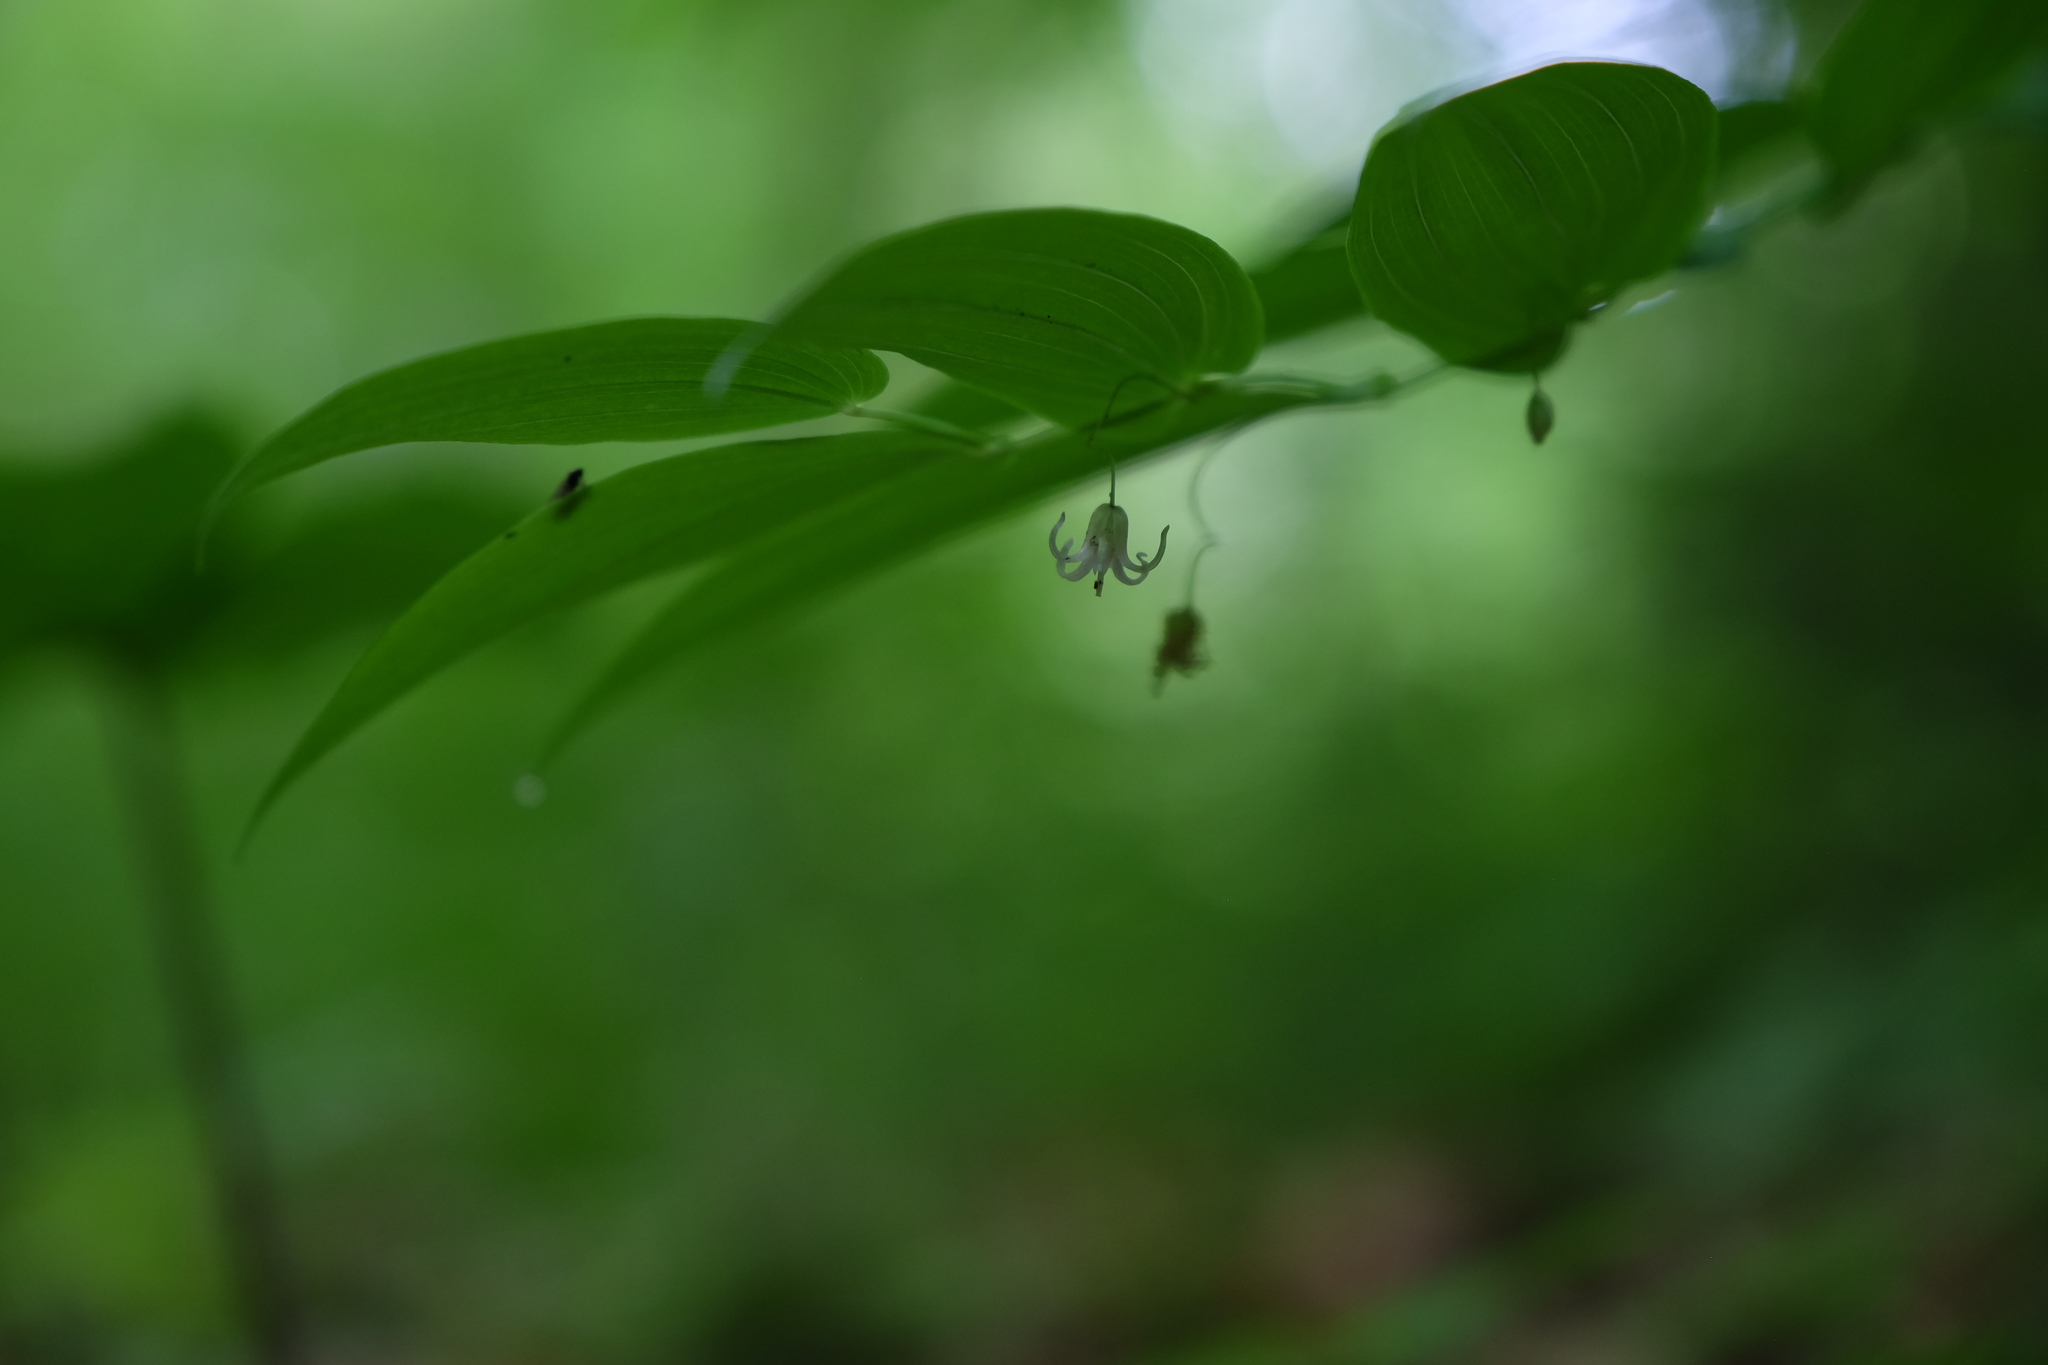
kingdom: Plantae
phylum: Tracheophyta
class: Liliopsida
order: Liliales
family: Liliaceae
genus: Streptopus
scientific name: Streptopus amplexifolius
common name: Clasp twisted stalk
